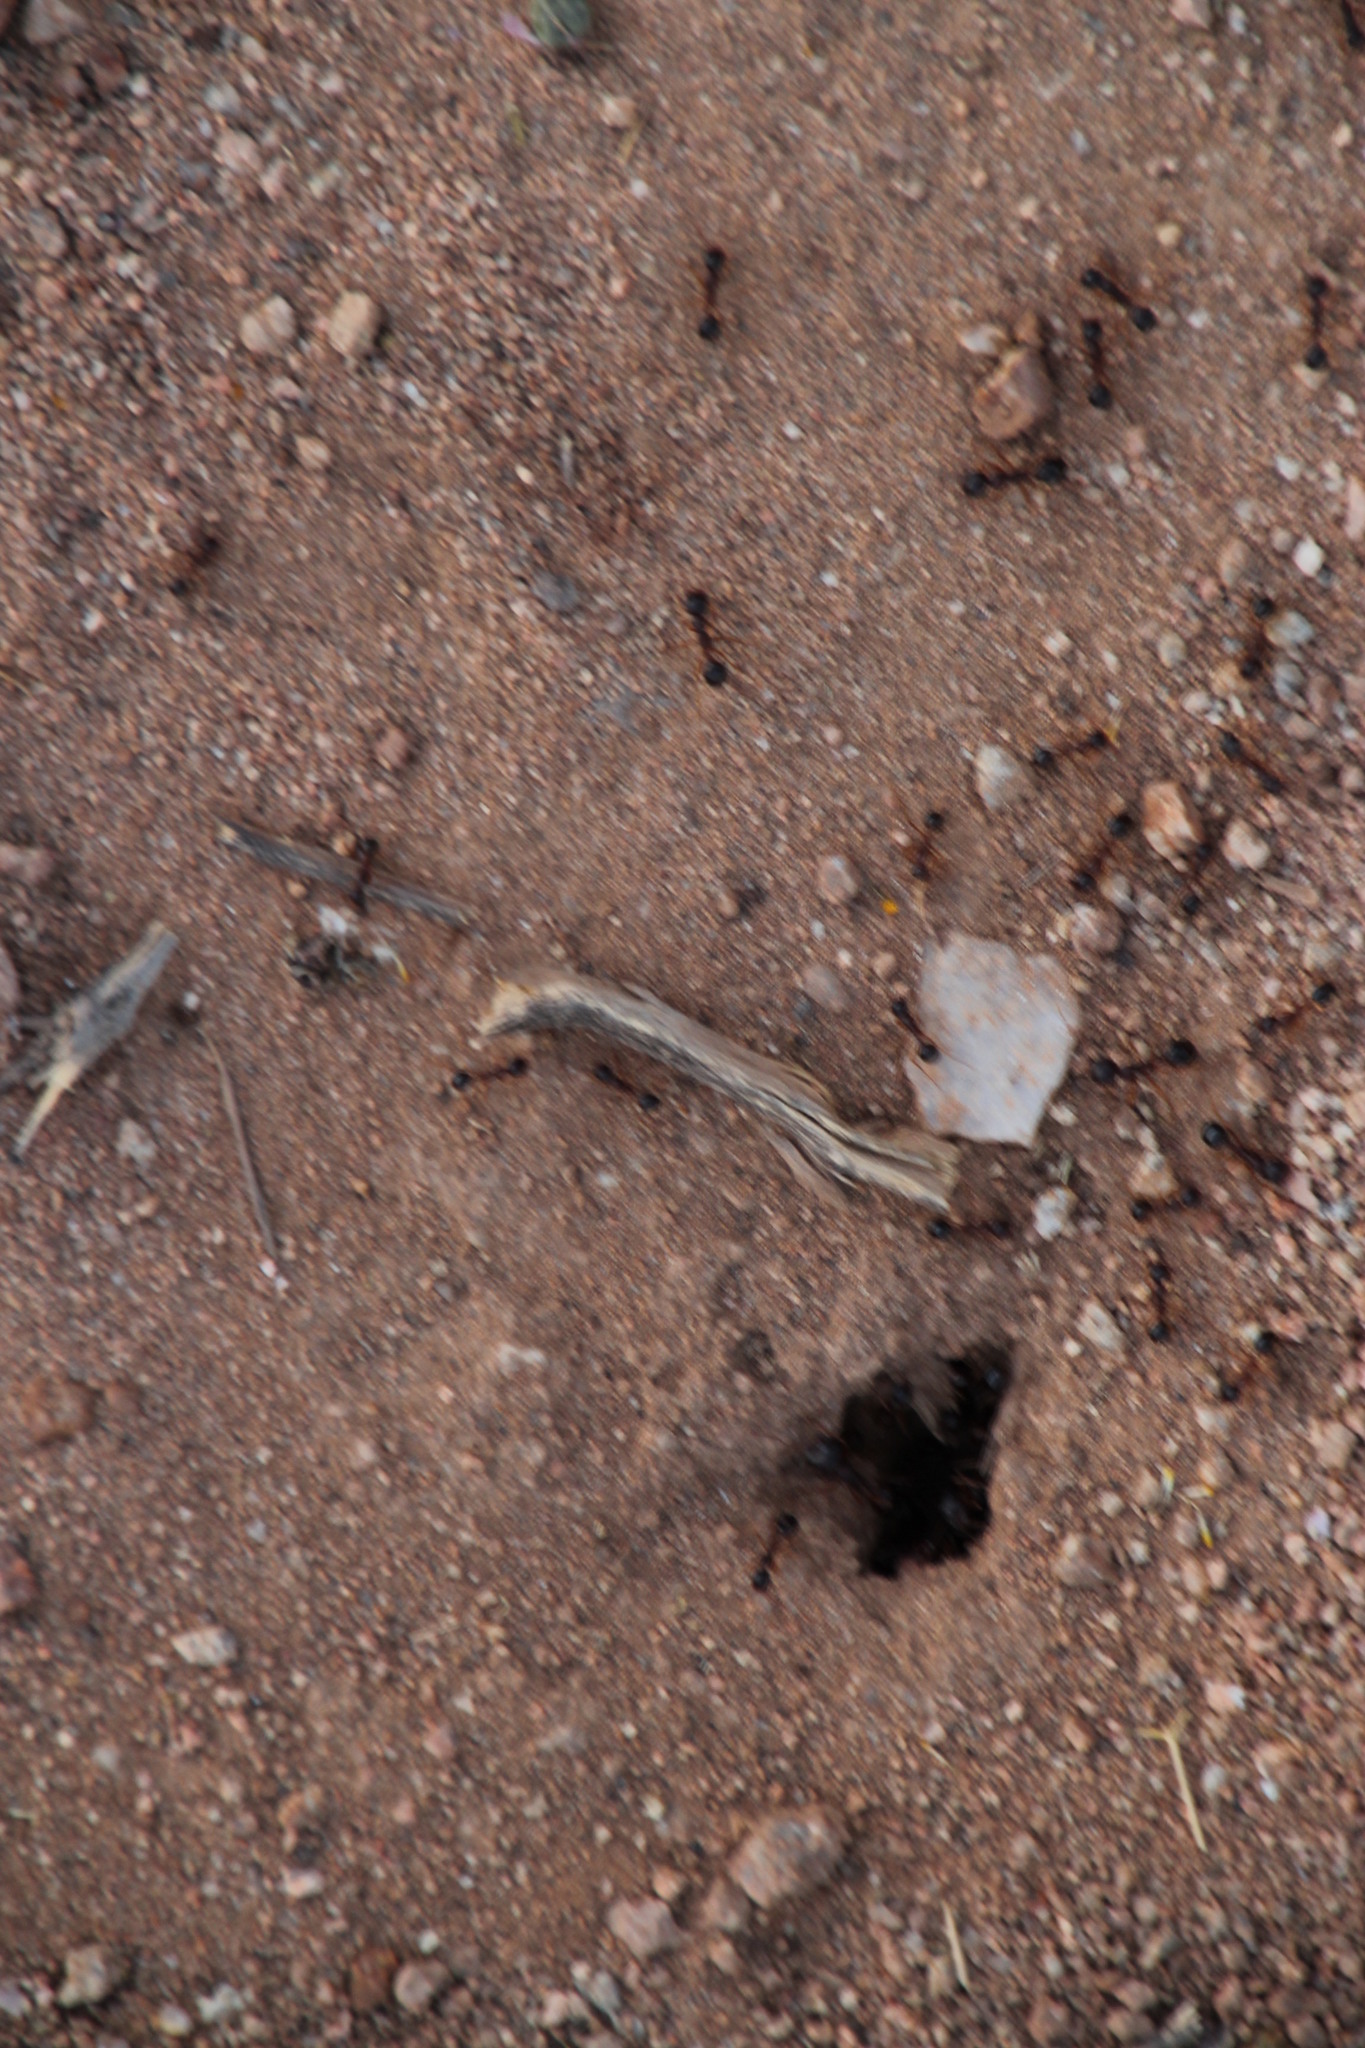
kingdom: Animalia
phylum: Arthropoda
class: Insecta
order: Hymenoptera
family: Formicidae
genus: Messor
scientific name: Messor striatifrons
